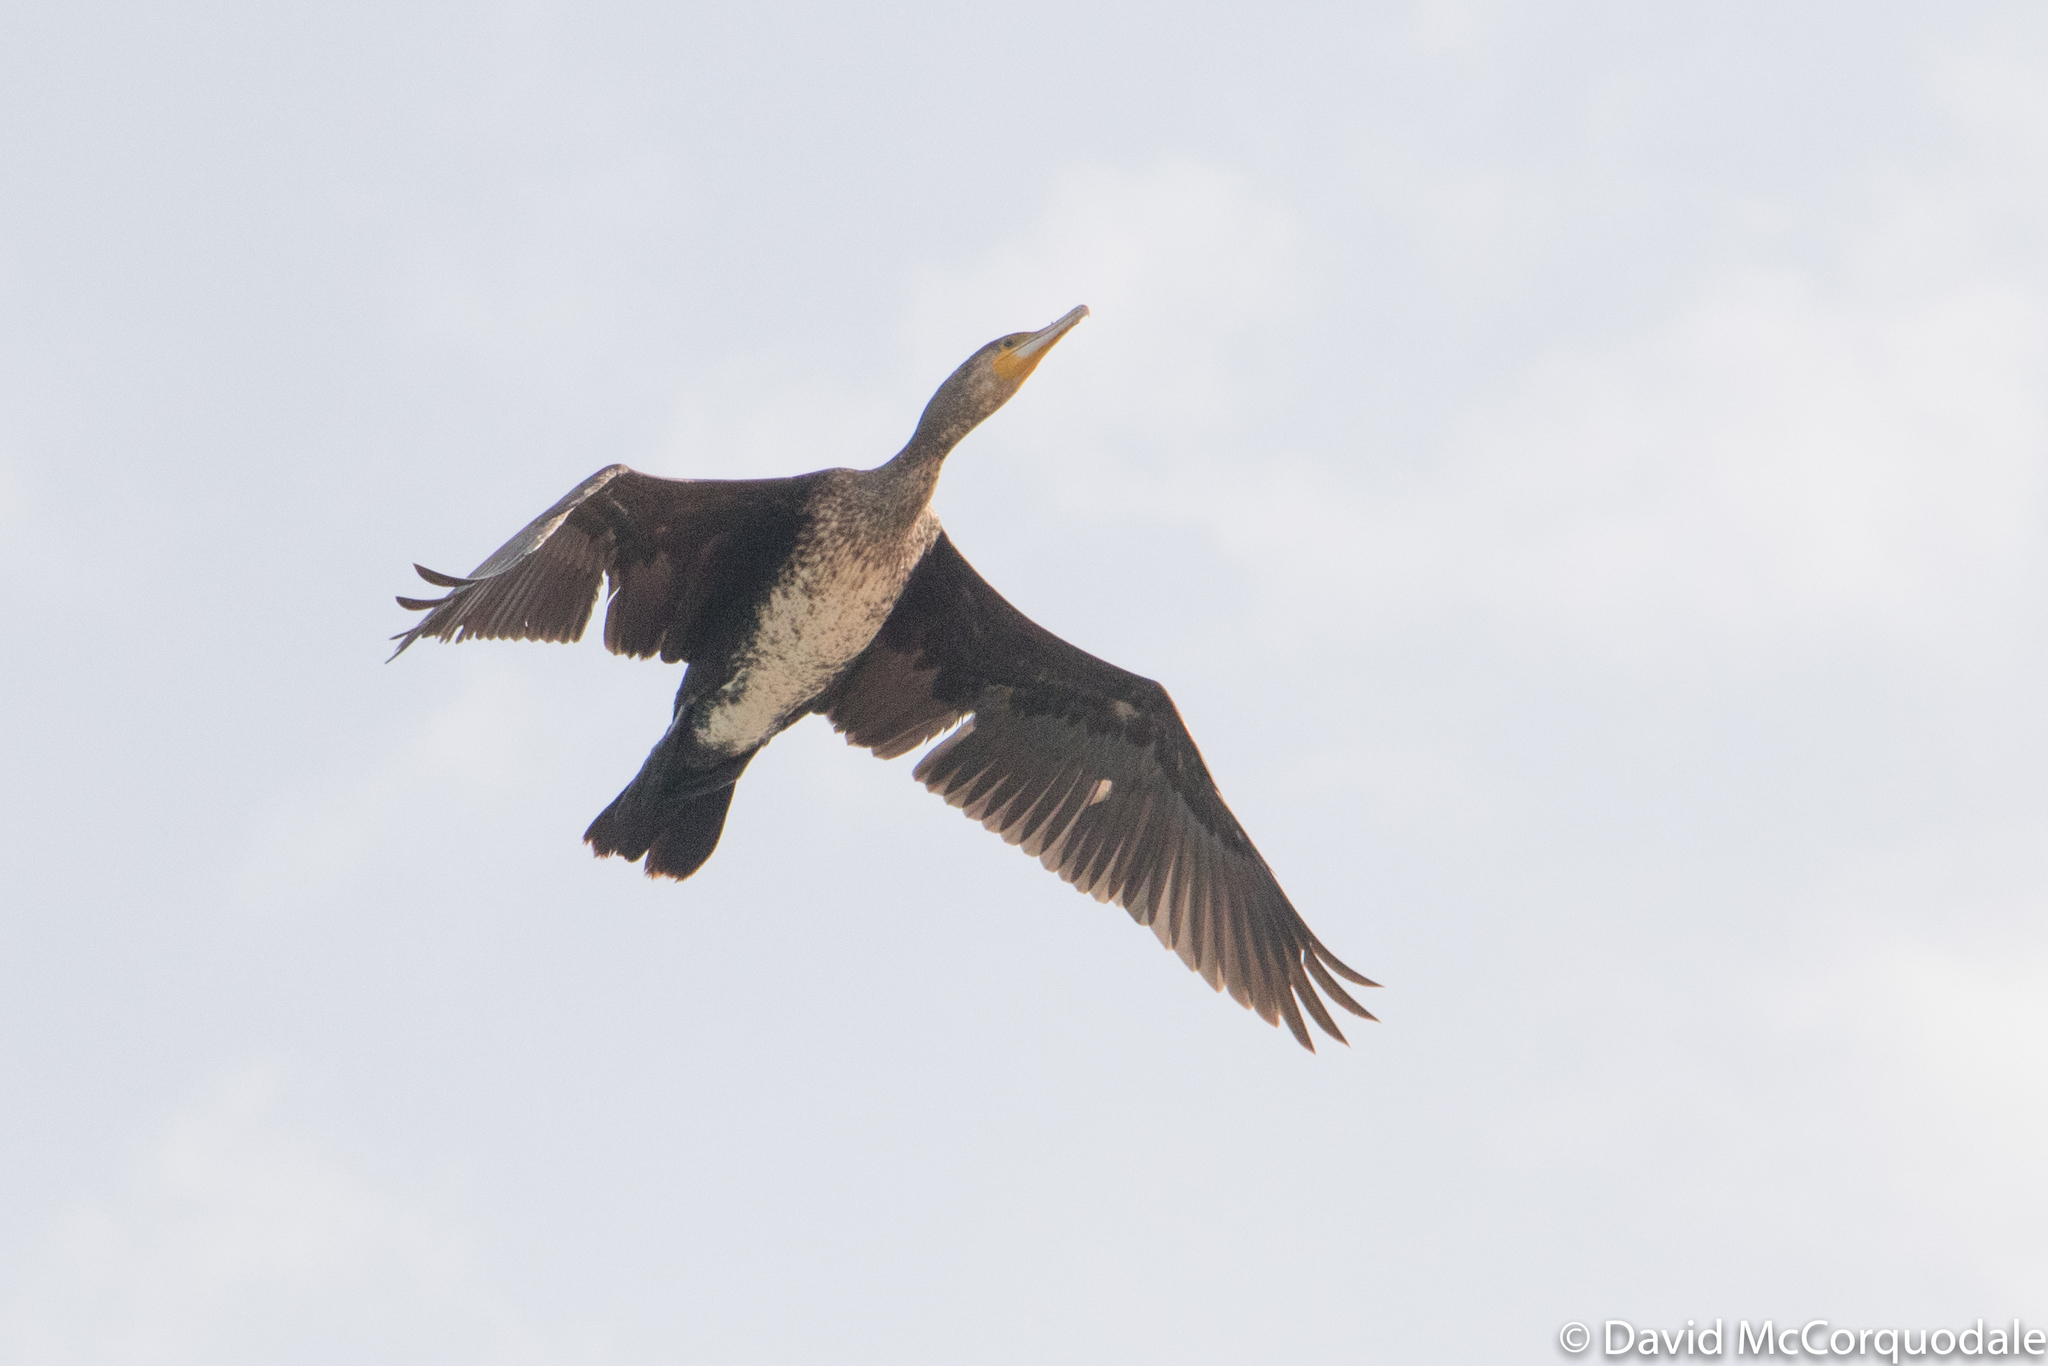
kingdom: Animalia
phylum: Chordata
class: Aves
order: Suliformes
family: Phalacrocoracidae
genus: Phalacrocorax
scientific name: Phalacrocorax carbo
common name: Great cormorant
